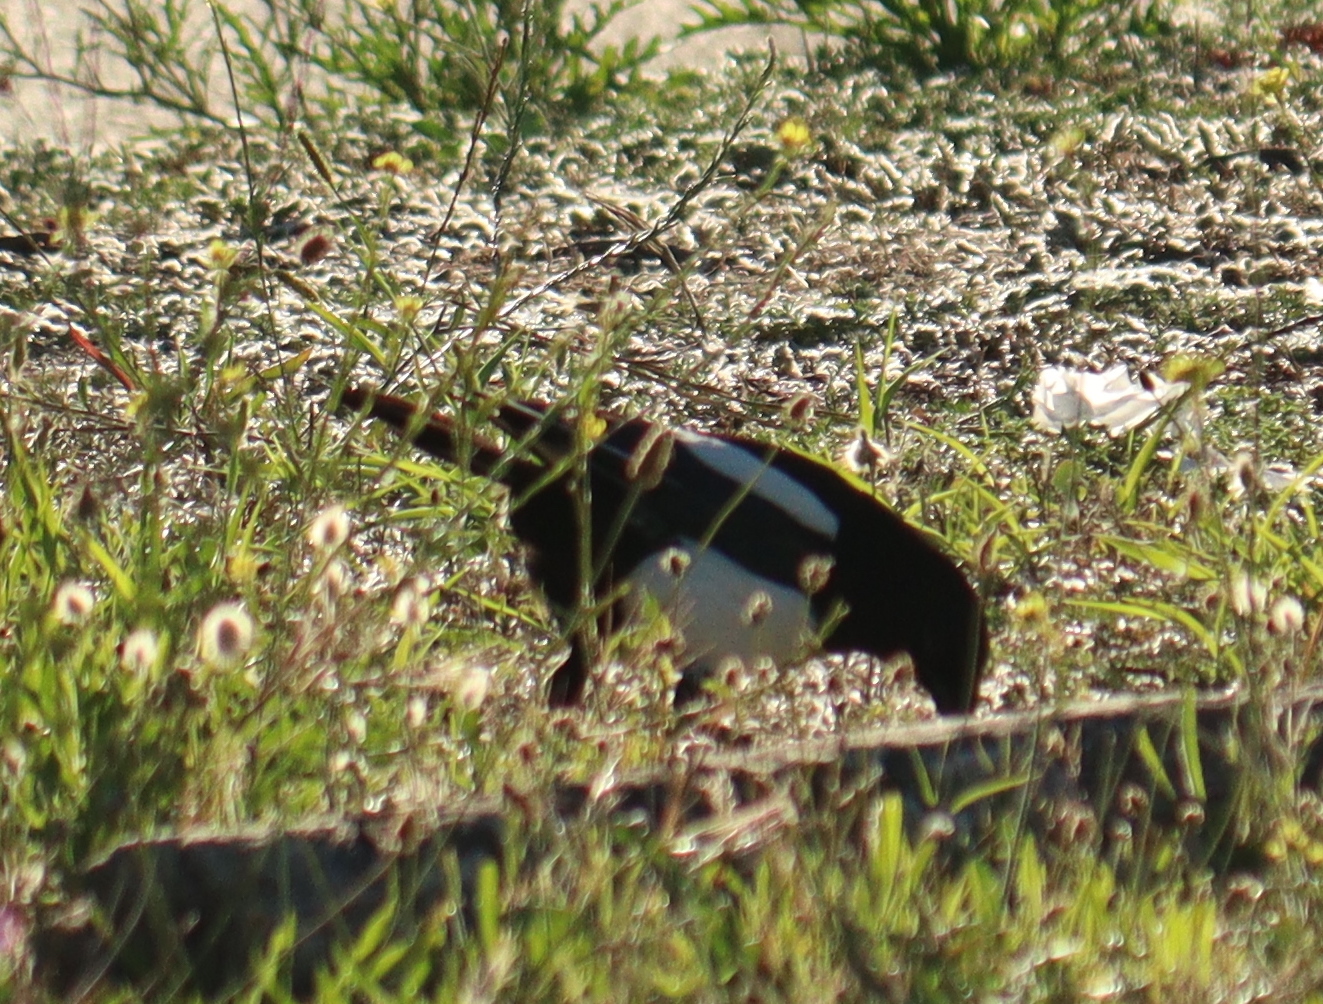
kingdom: Animalia
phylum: Chordata
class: Aves
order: Passeriformes
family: Corvidae
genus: Pica
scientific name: Pica pica
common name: Eurasian magpie
